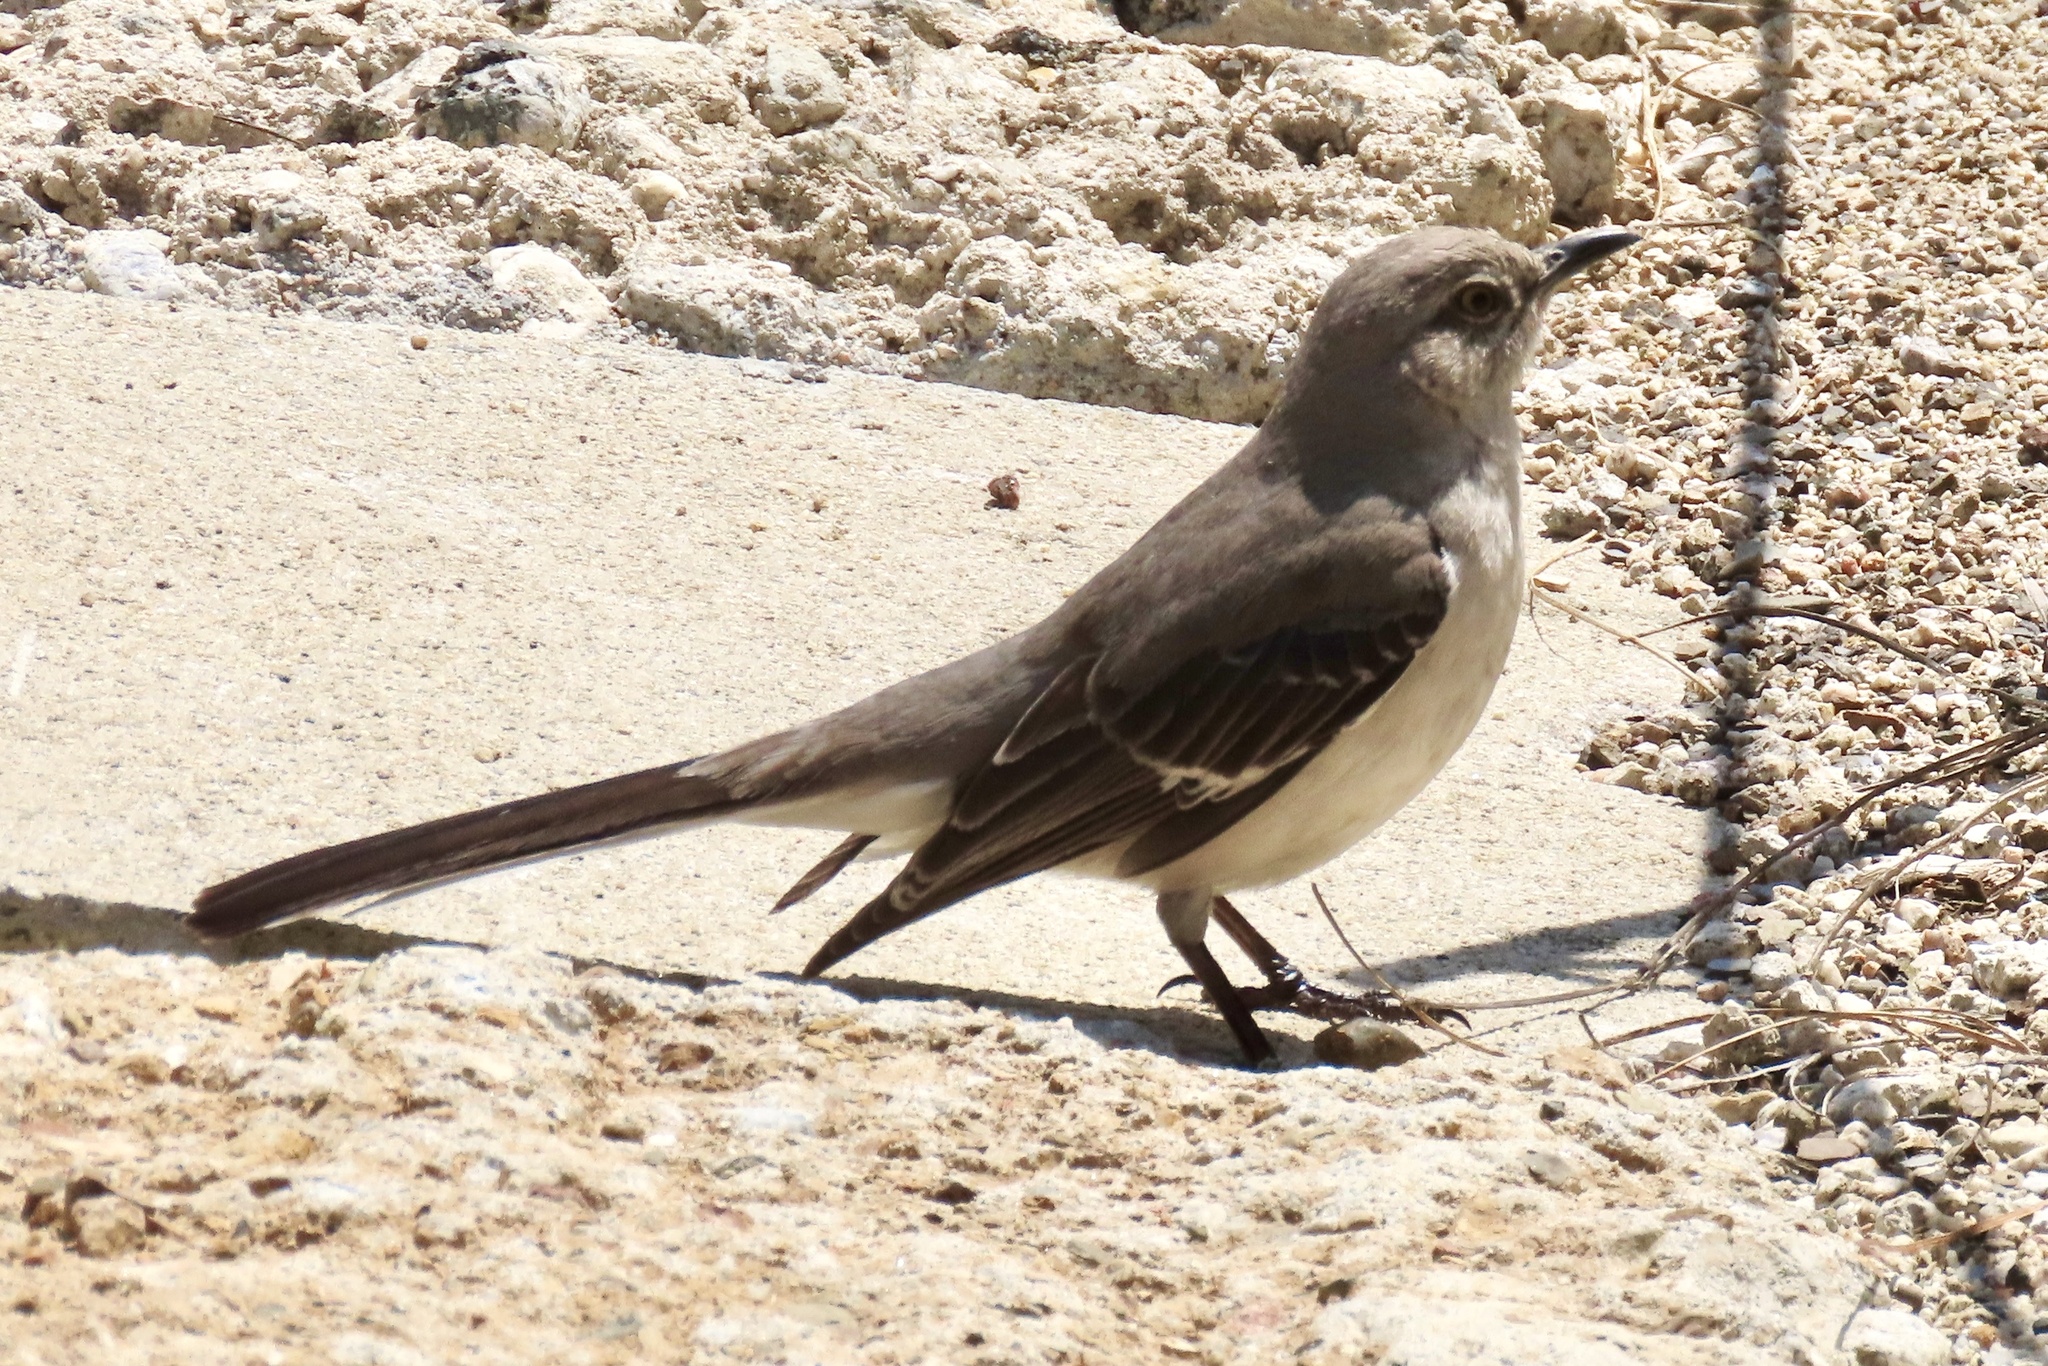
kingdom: Animalia
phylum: Chordata
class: Aves
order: Passeriformes
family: Mimidae
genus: Mimus
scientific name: Mimus polyglottos
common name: Northern mockingbird
